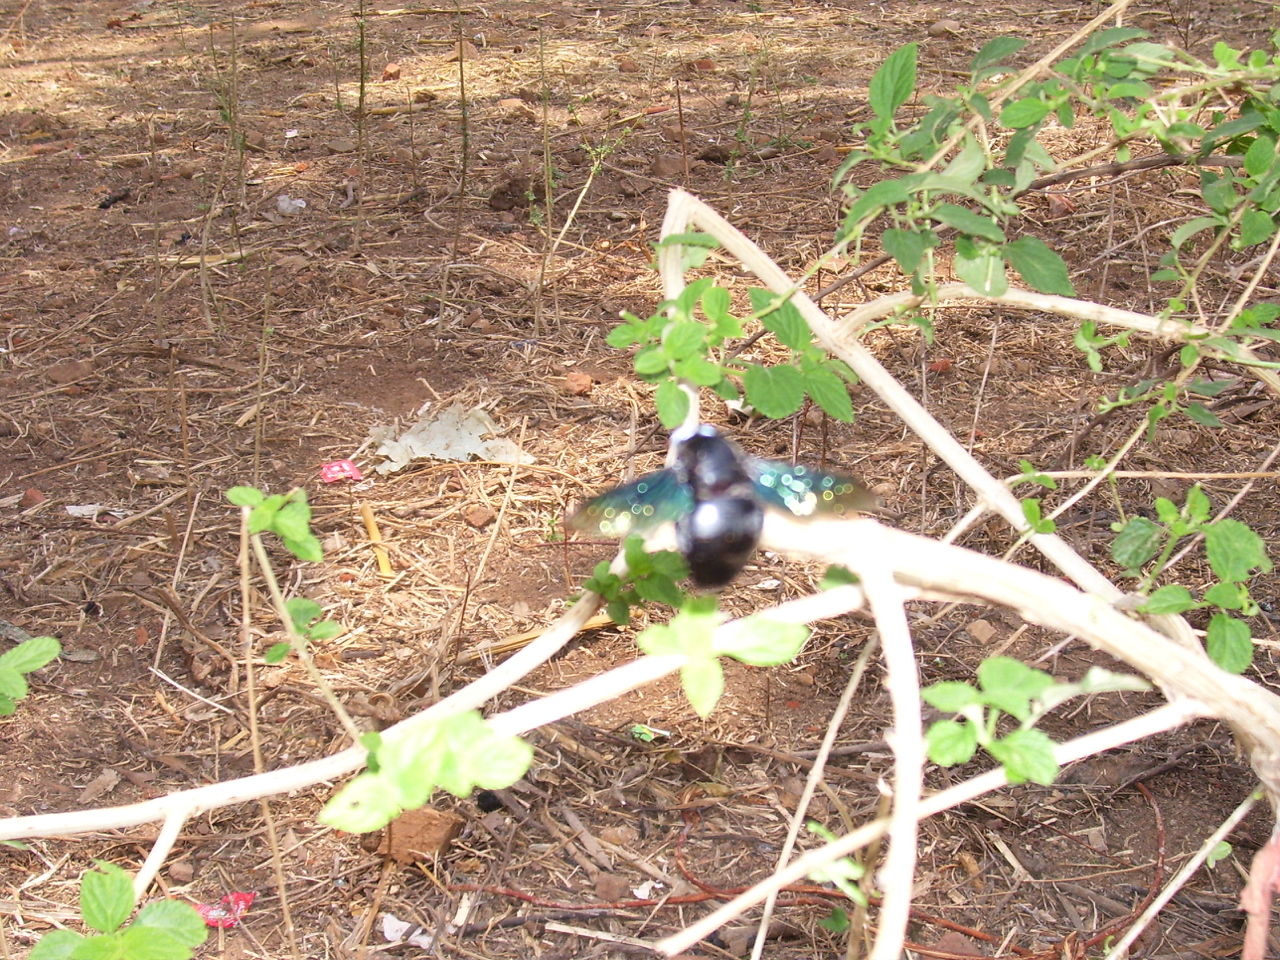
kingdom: Animalia
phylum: Arthropoda
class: Insecta
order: Hymenoptera
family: Apidae
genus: Xylocopa
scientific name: Xylocopa tenuiscapa
